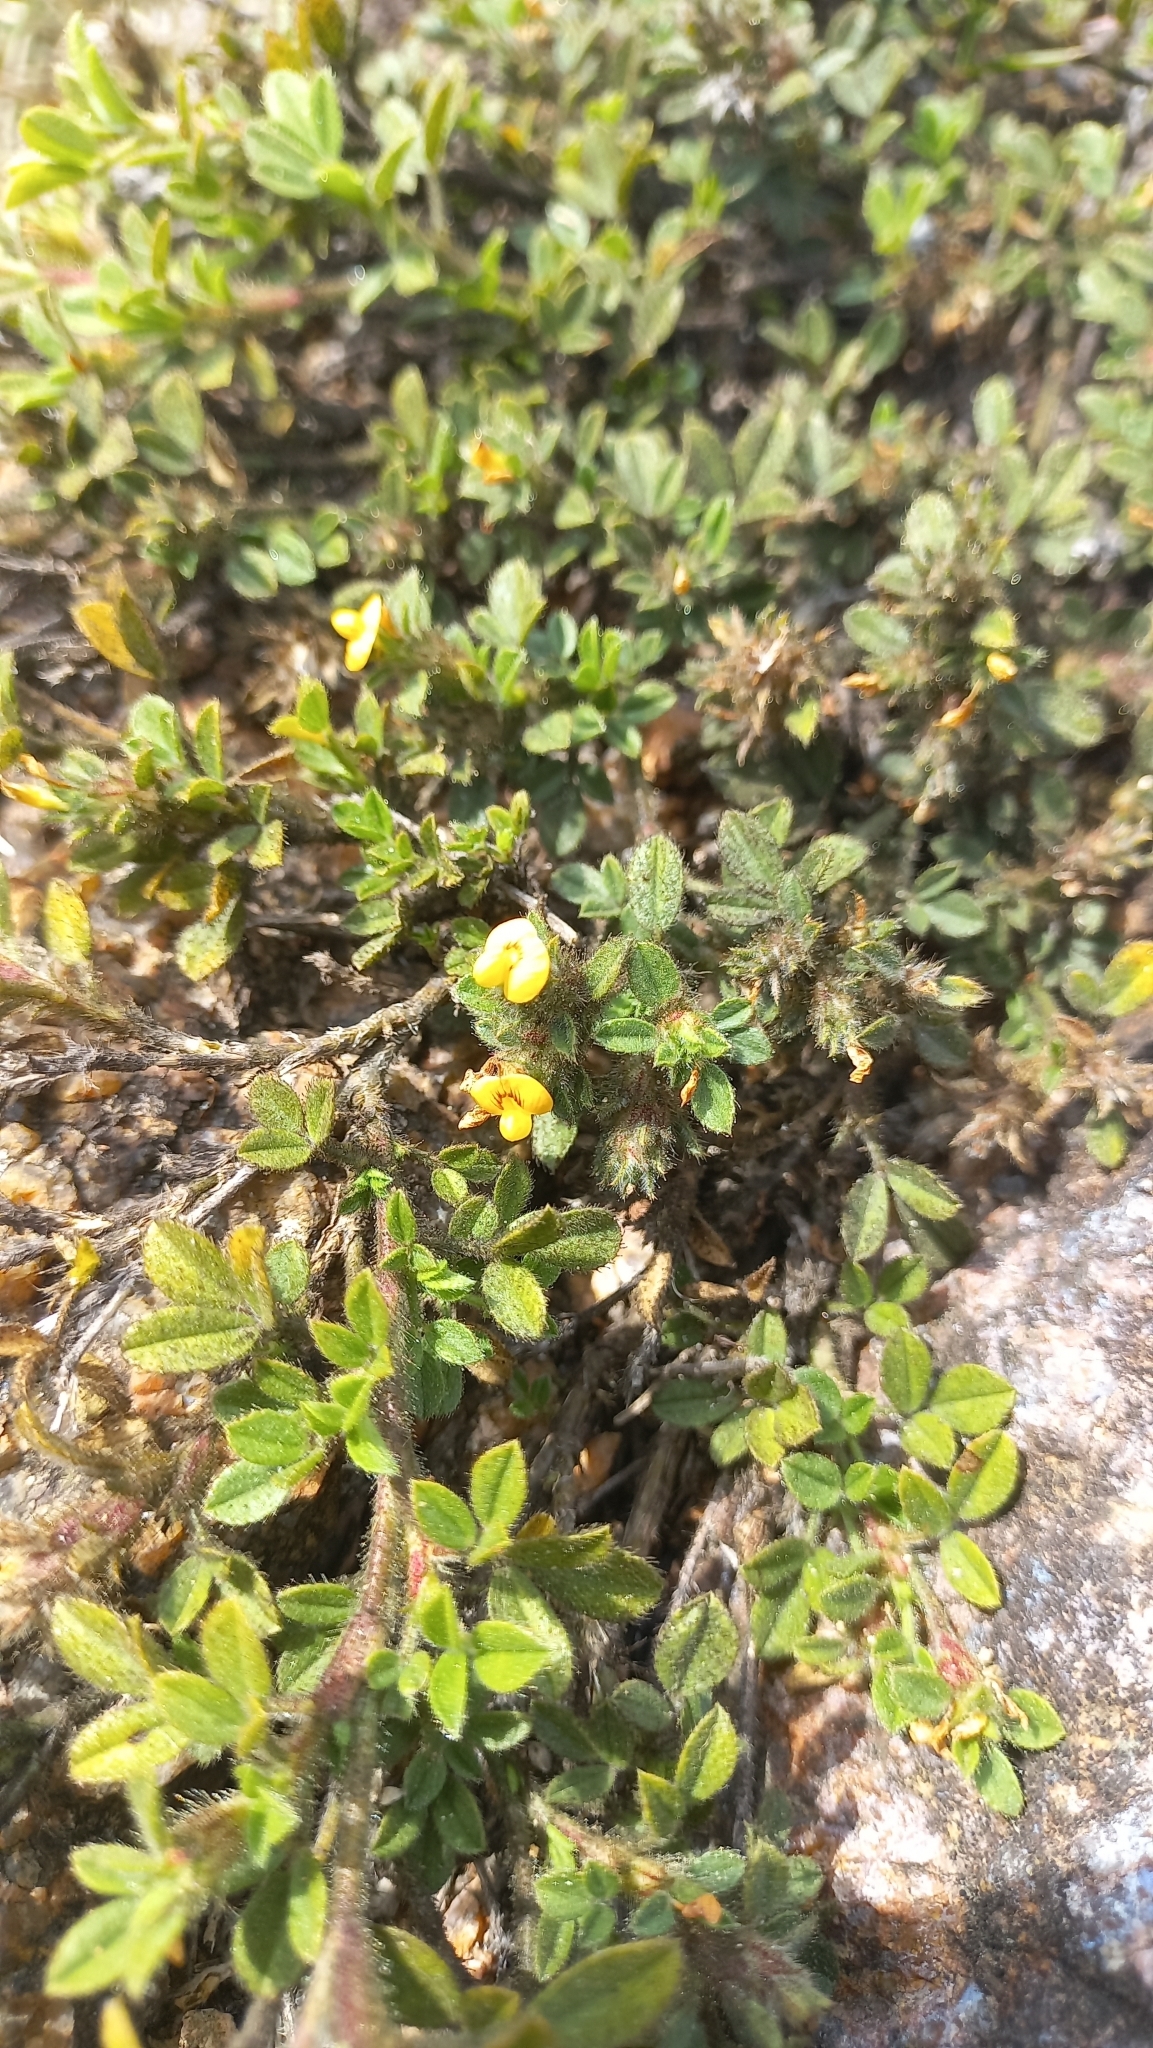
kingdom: Plantae
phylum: Tracheophyta
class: Magnoliopsida
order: Fabales
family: Fabaceae
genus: Stylosanthes
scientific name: Stylosanthes viscosa
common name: Viscid pencil-flower
